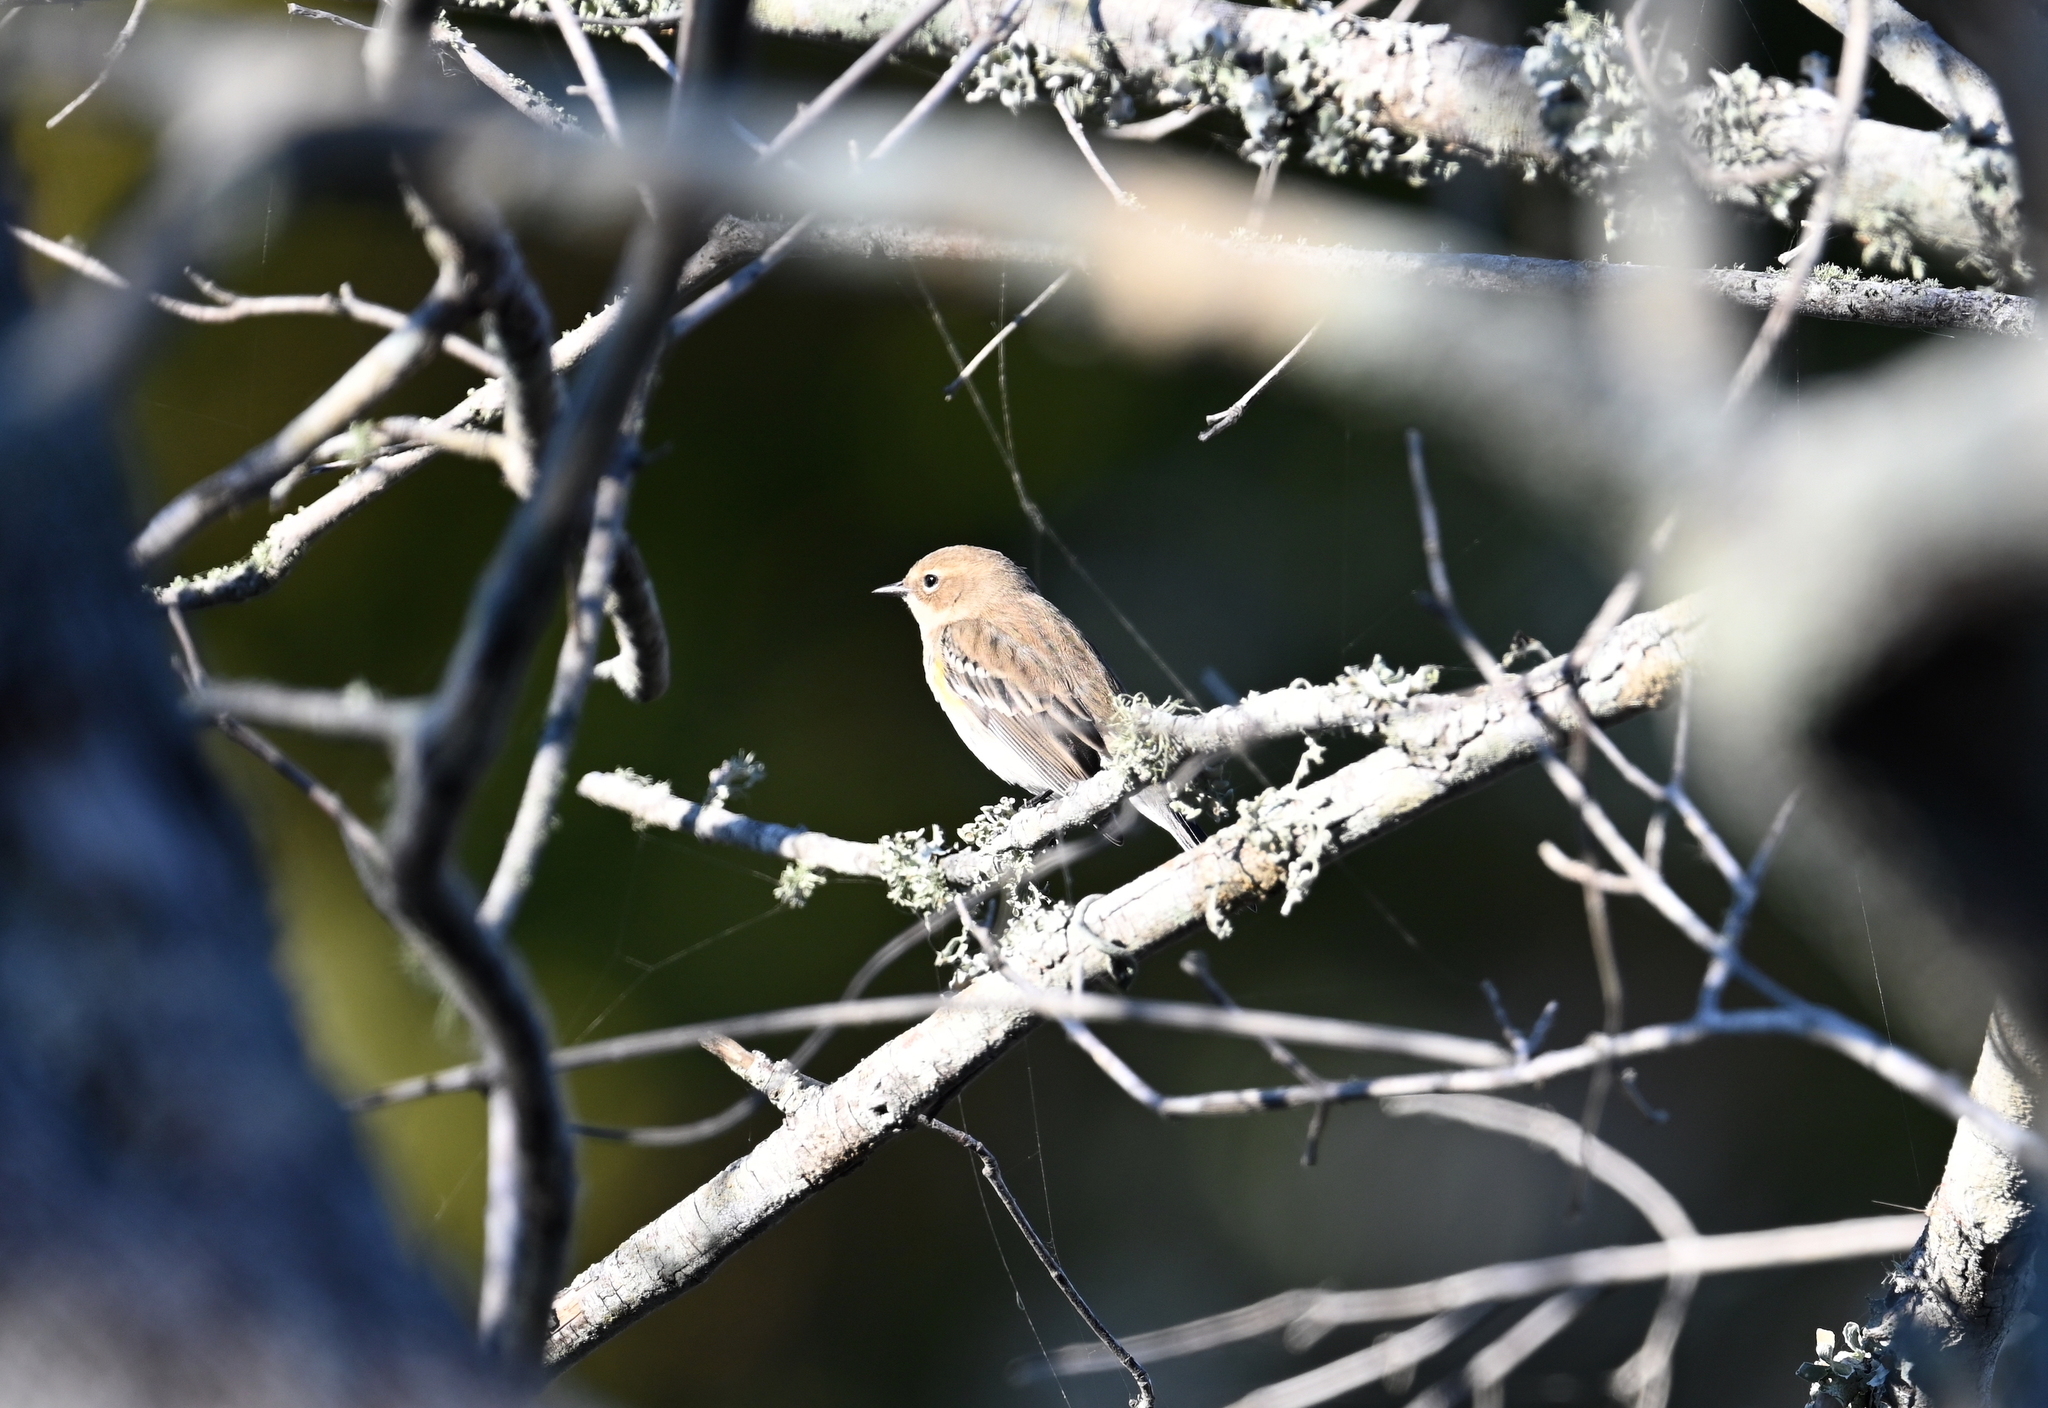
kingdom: Animalia
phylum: Chordata
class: Aves
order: Passeriformes
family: Parulidae
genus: Setophaga
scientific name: Setophaga coronata
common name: Myrtle warbler
